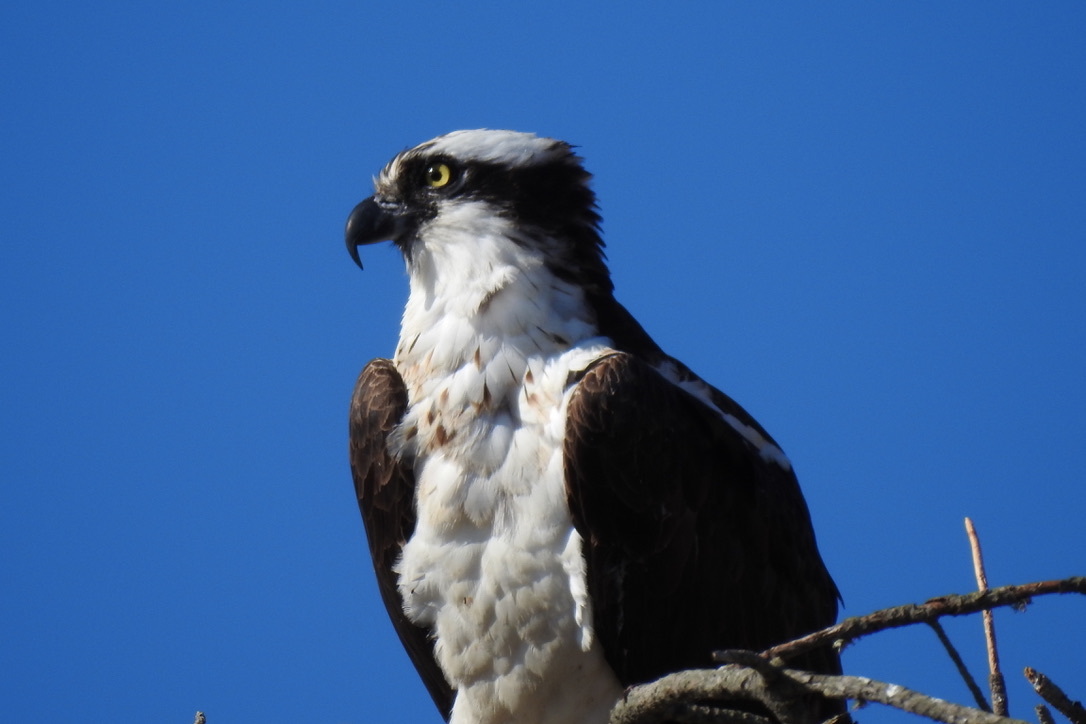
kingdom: Animalia
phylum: Chordata
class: Aves
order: Accipitriformes
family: Pandionidae
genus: Pandion
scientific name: Pandion haliaetus
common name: Osprey
